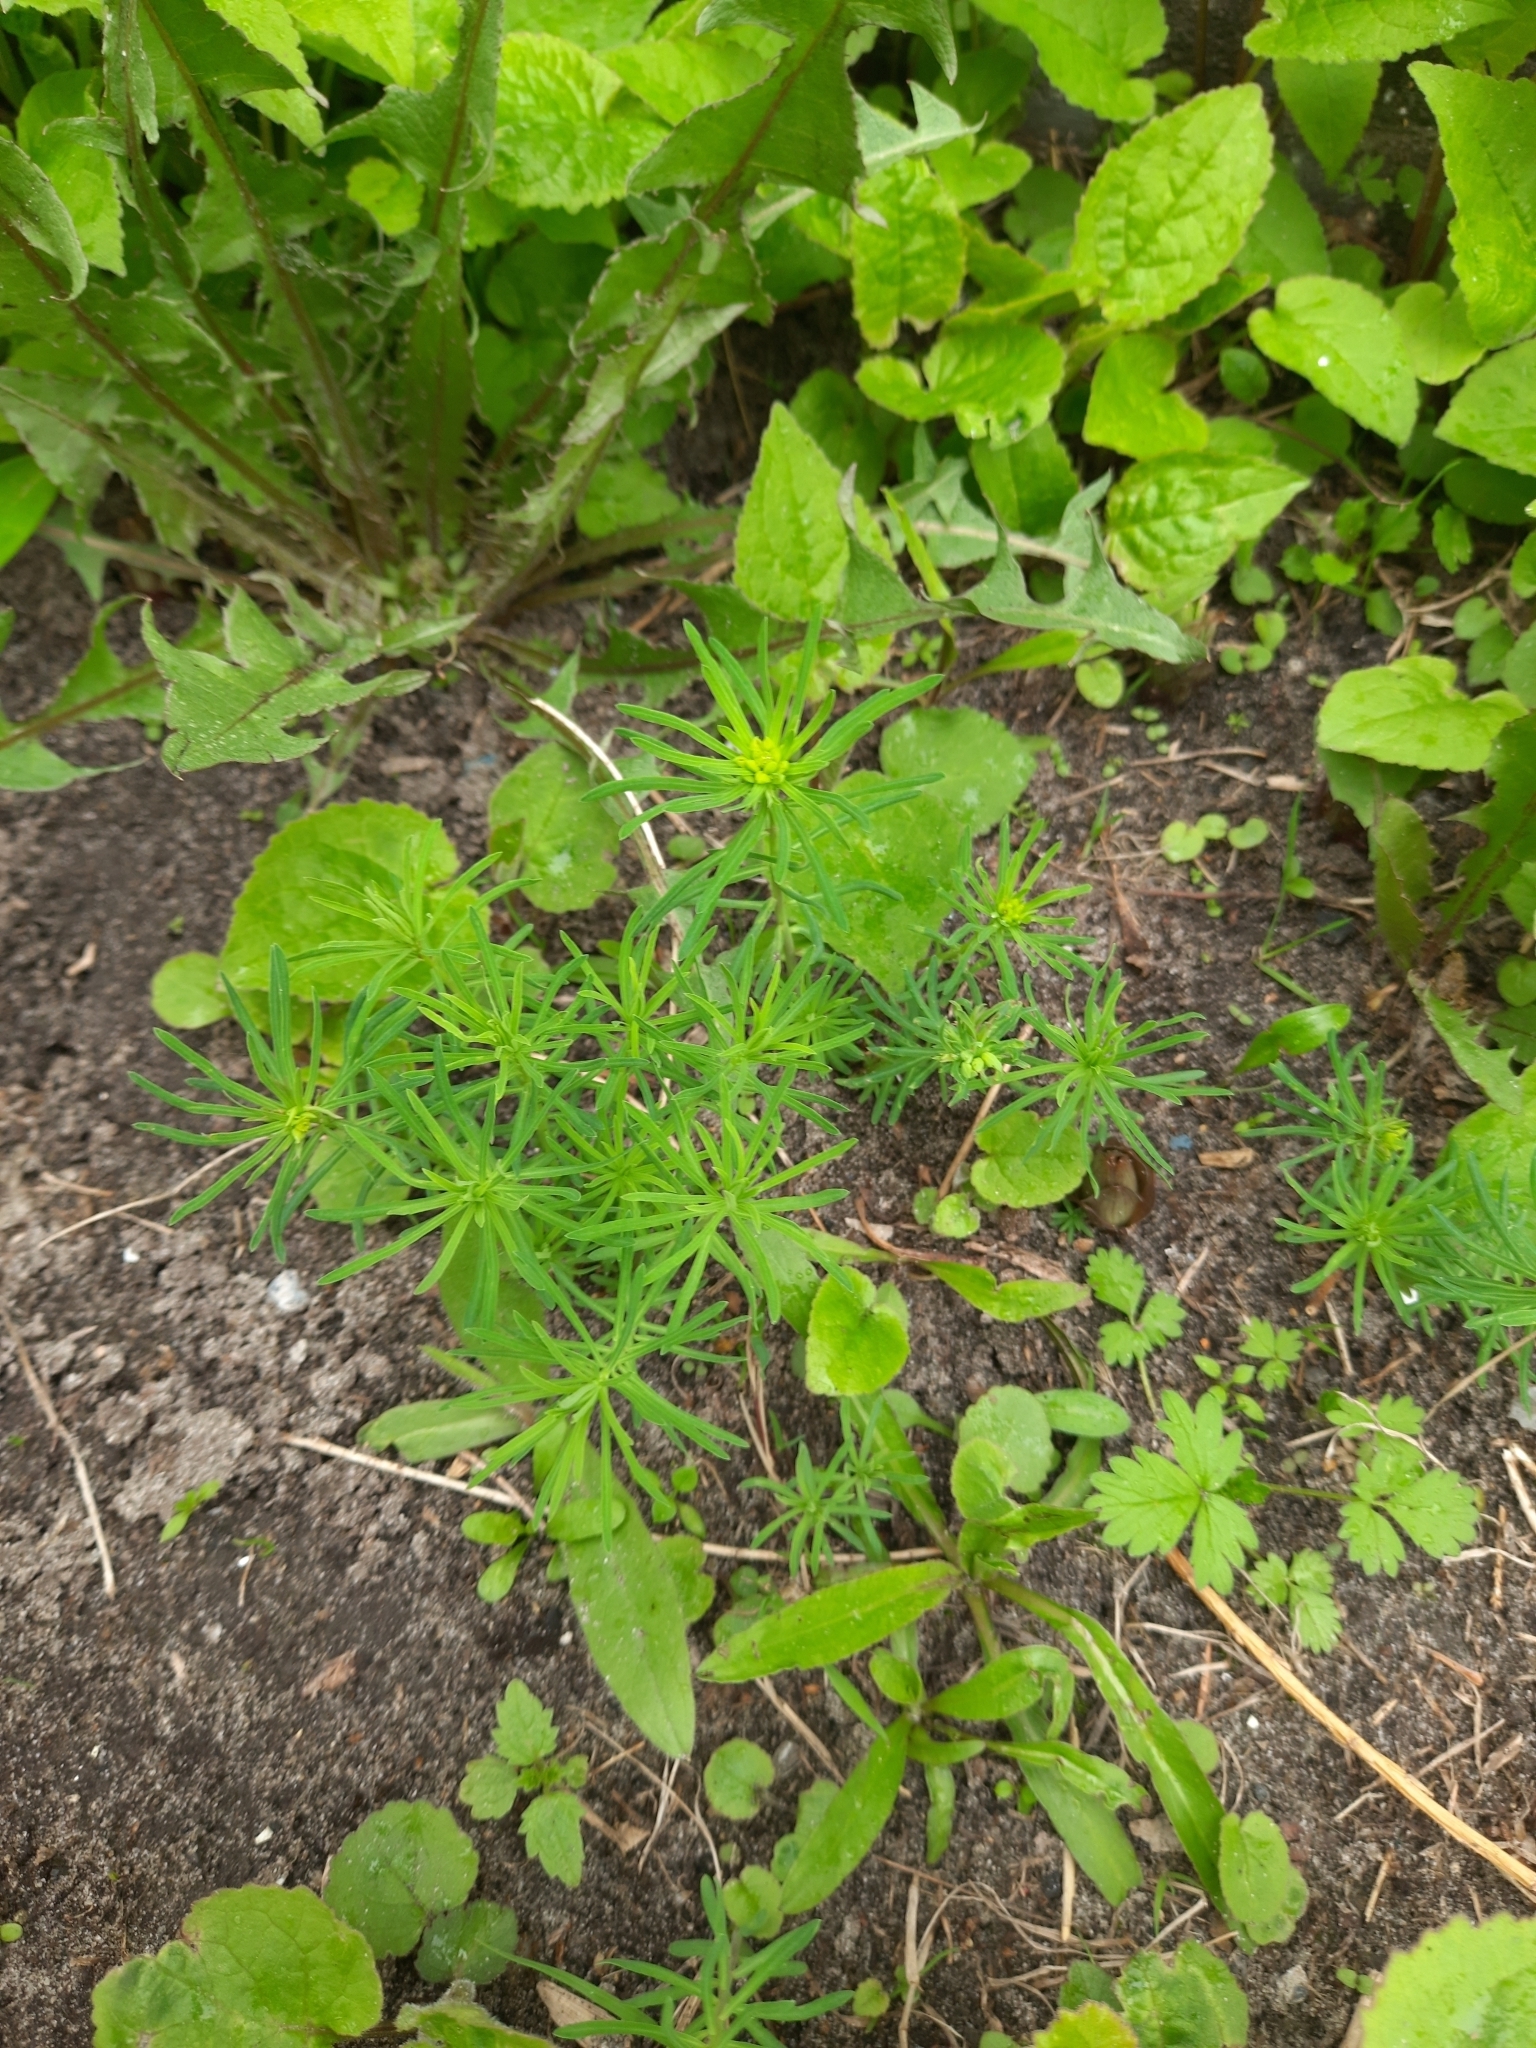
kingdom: Plantae
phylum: Tracheophyta
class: Magnoliopsida
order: Malpighiales
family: Euphorbiaceae
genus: Euphorbia
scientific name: Euphorbia cyparissias
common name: Cypress spurge
